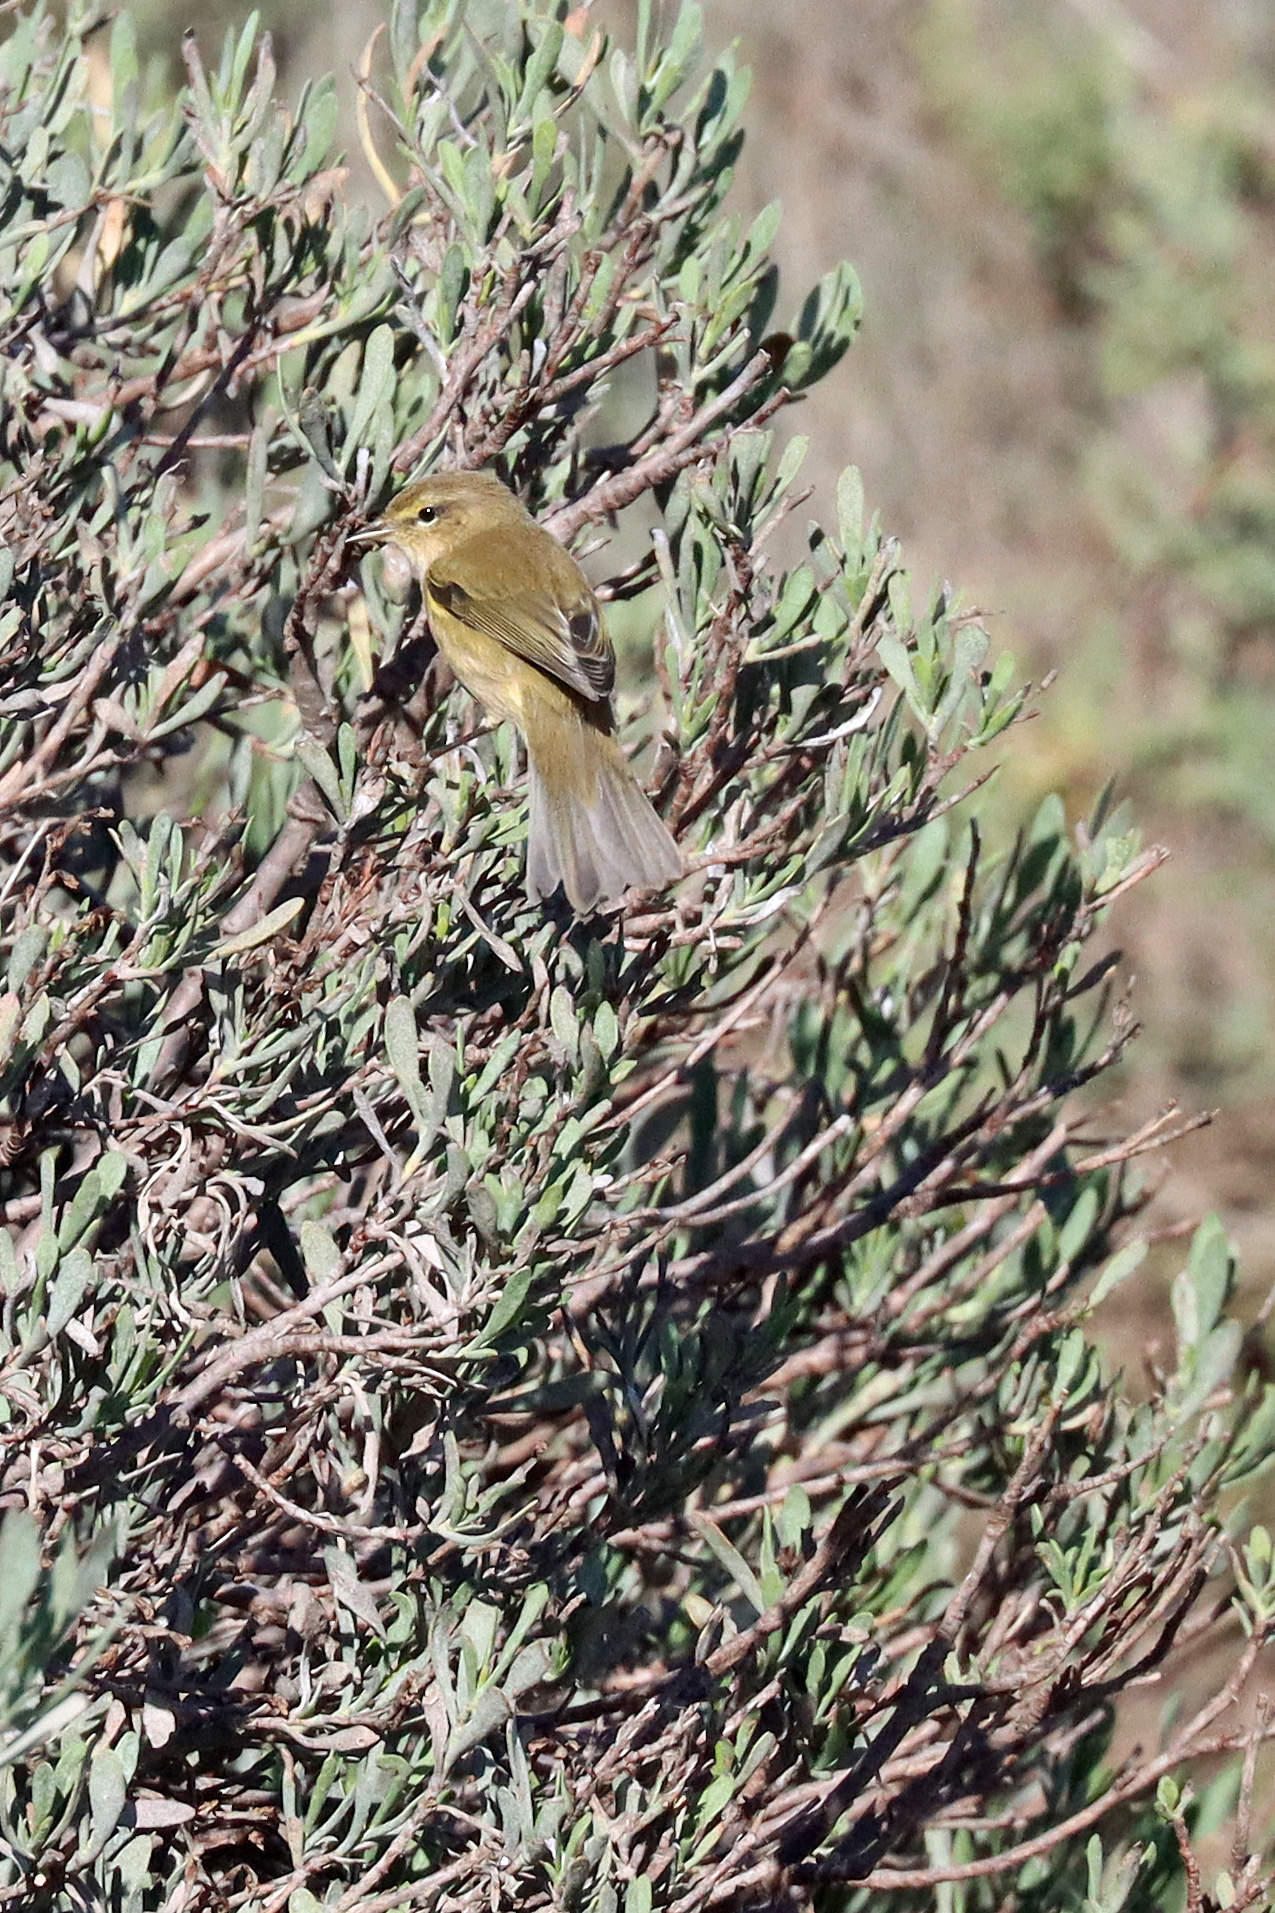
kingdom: Animalia
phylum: Chordata
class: Aves
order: Passeriformes
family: Phylloscopidae
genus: Phylloscopus
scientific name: Phylloscopus collybita
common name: Common chiffchaff
